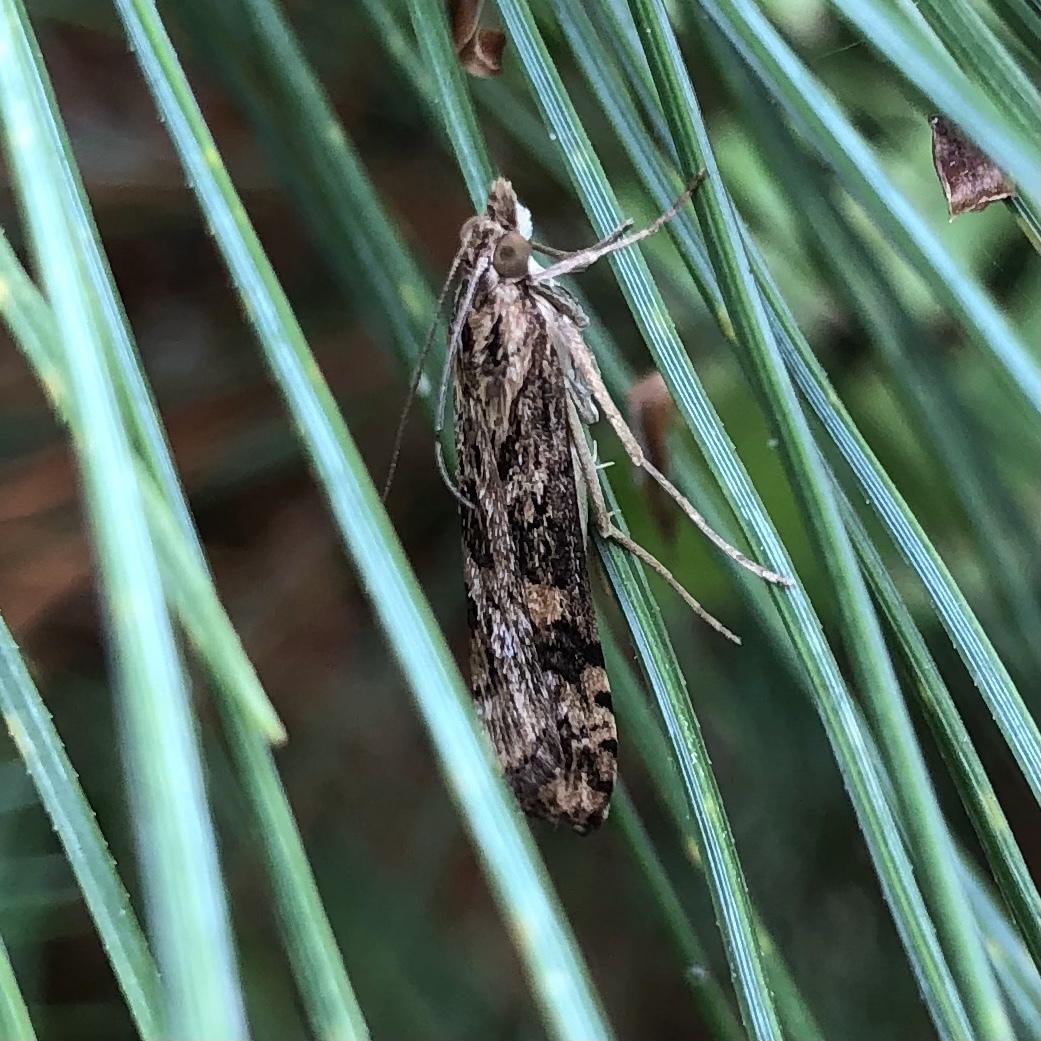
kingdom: Animalia
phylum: Arthropoda
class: Insecta
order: Lepidoptera
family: Crambidae
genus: Nomophila
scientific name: Nomophila nearctica
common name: American rush veneer
